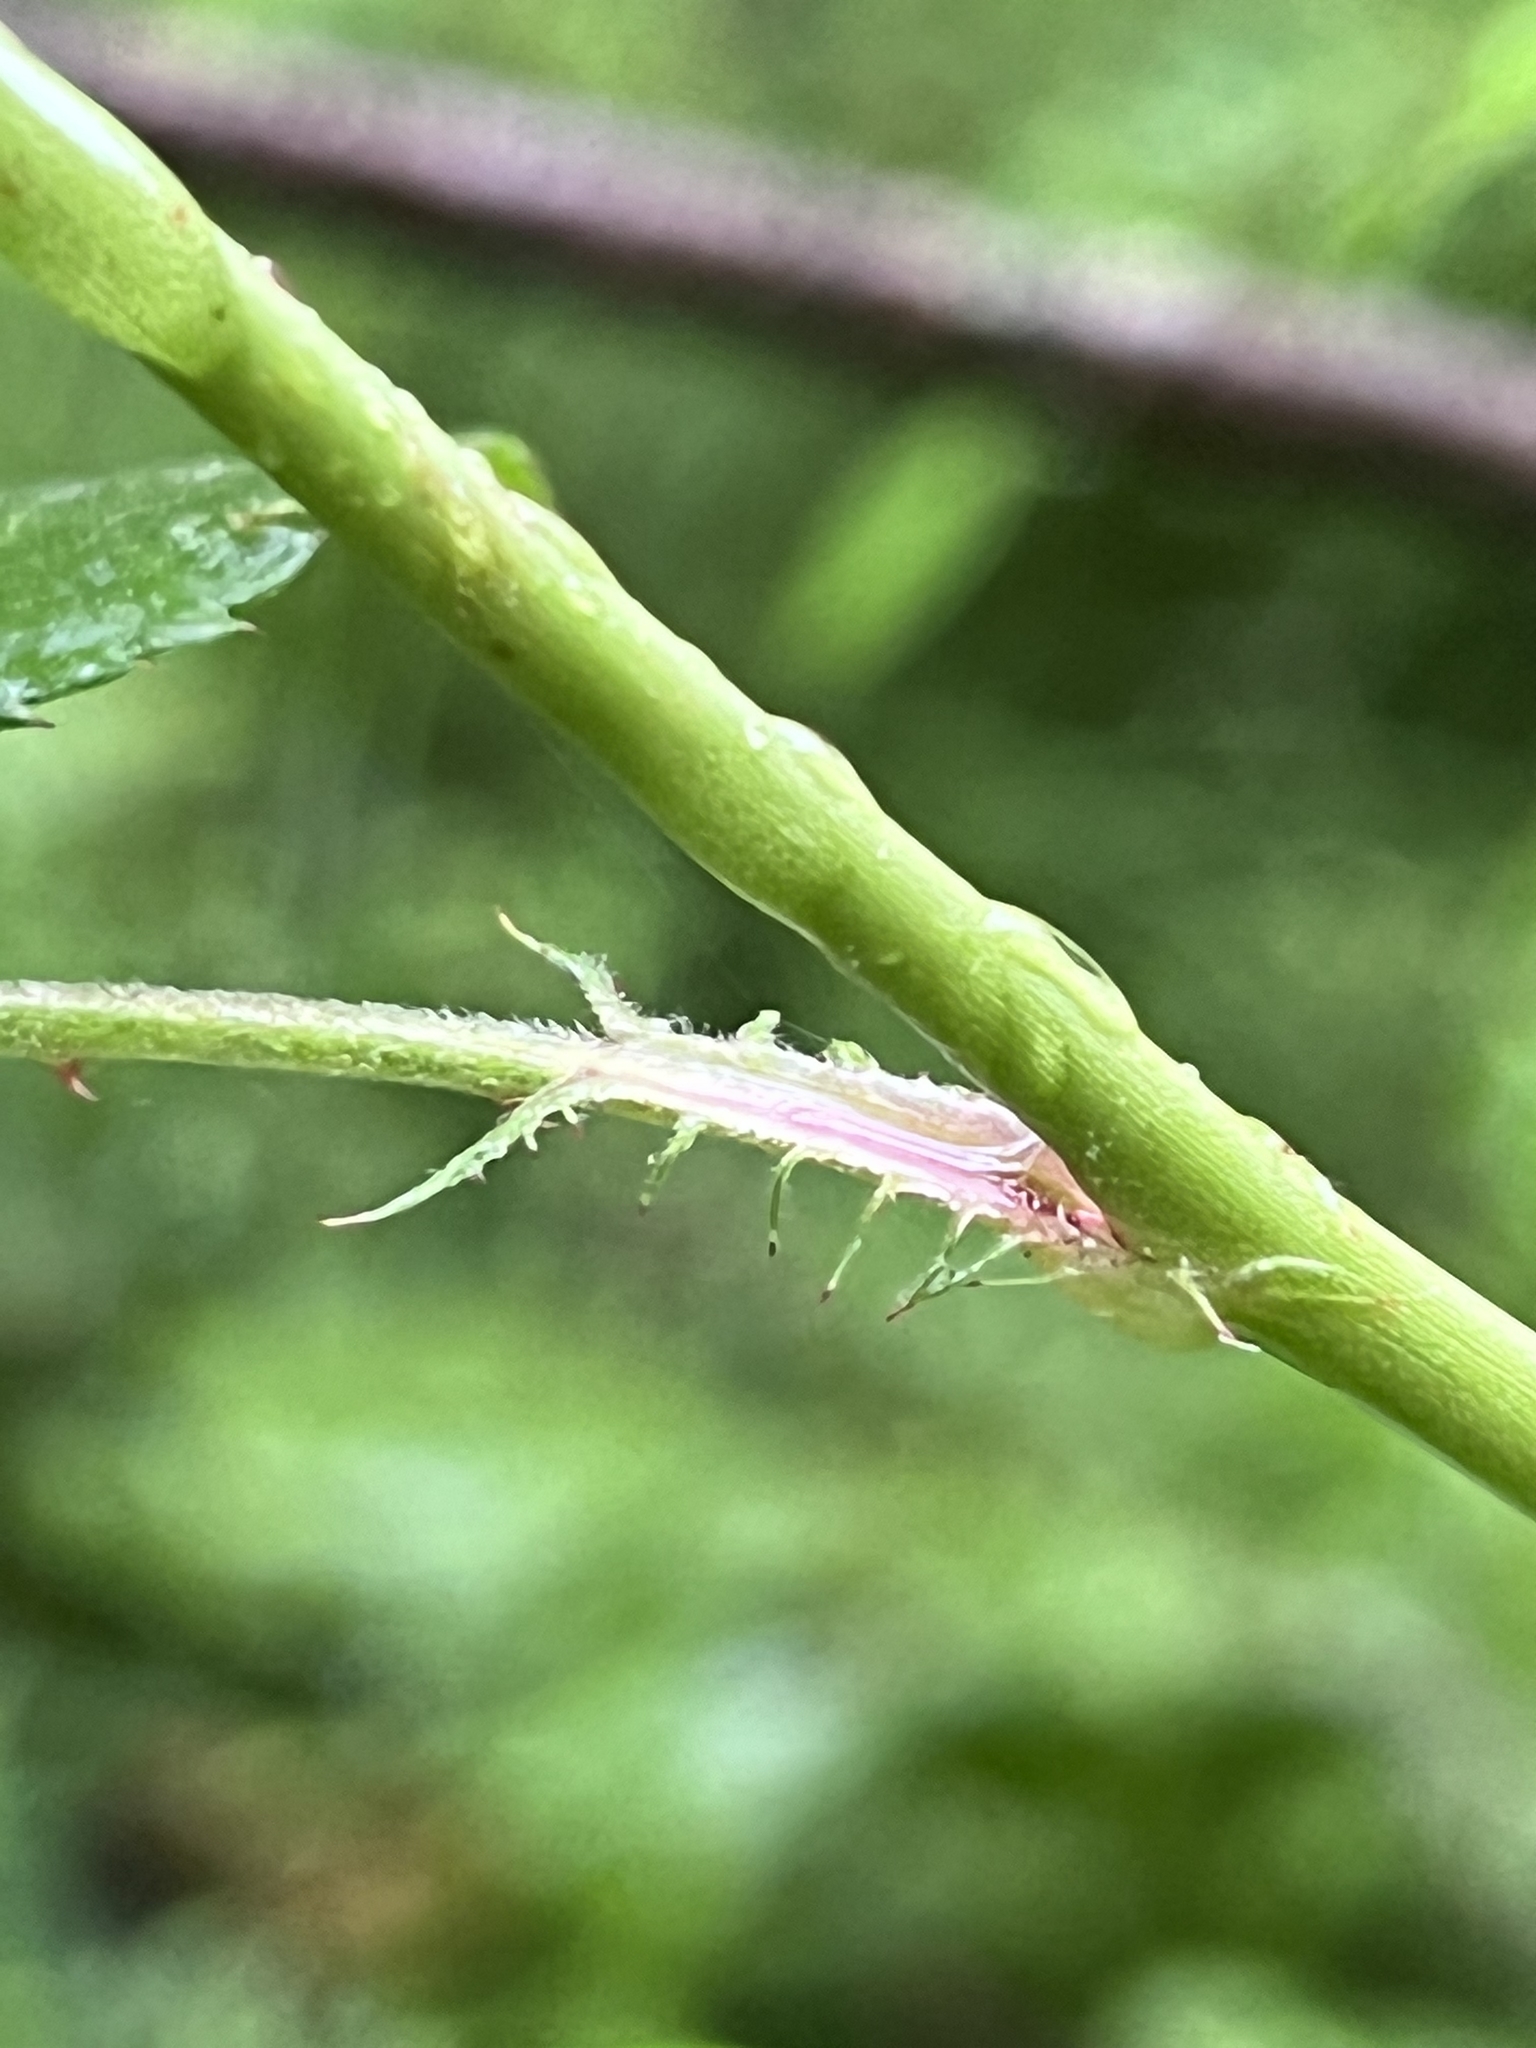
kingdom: Plantae
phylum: Tracheophyta
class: Magnoliopsida
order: Rosales
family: Rosaceae
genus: Rosa
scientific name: Rosa multiflora
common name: Multiflora rose
